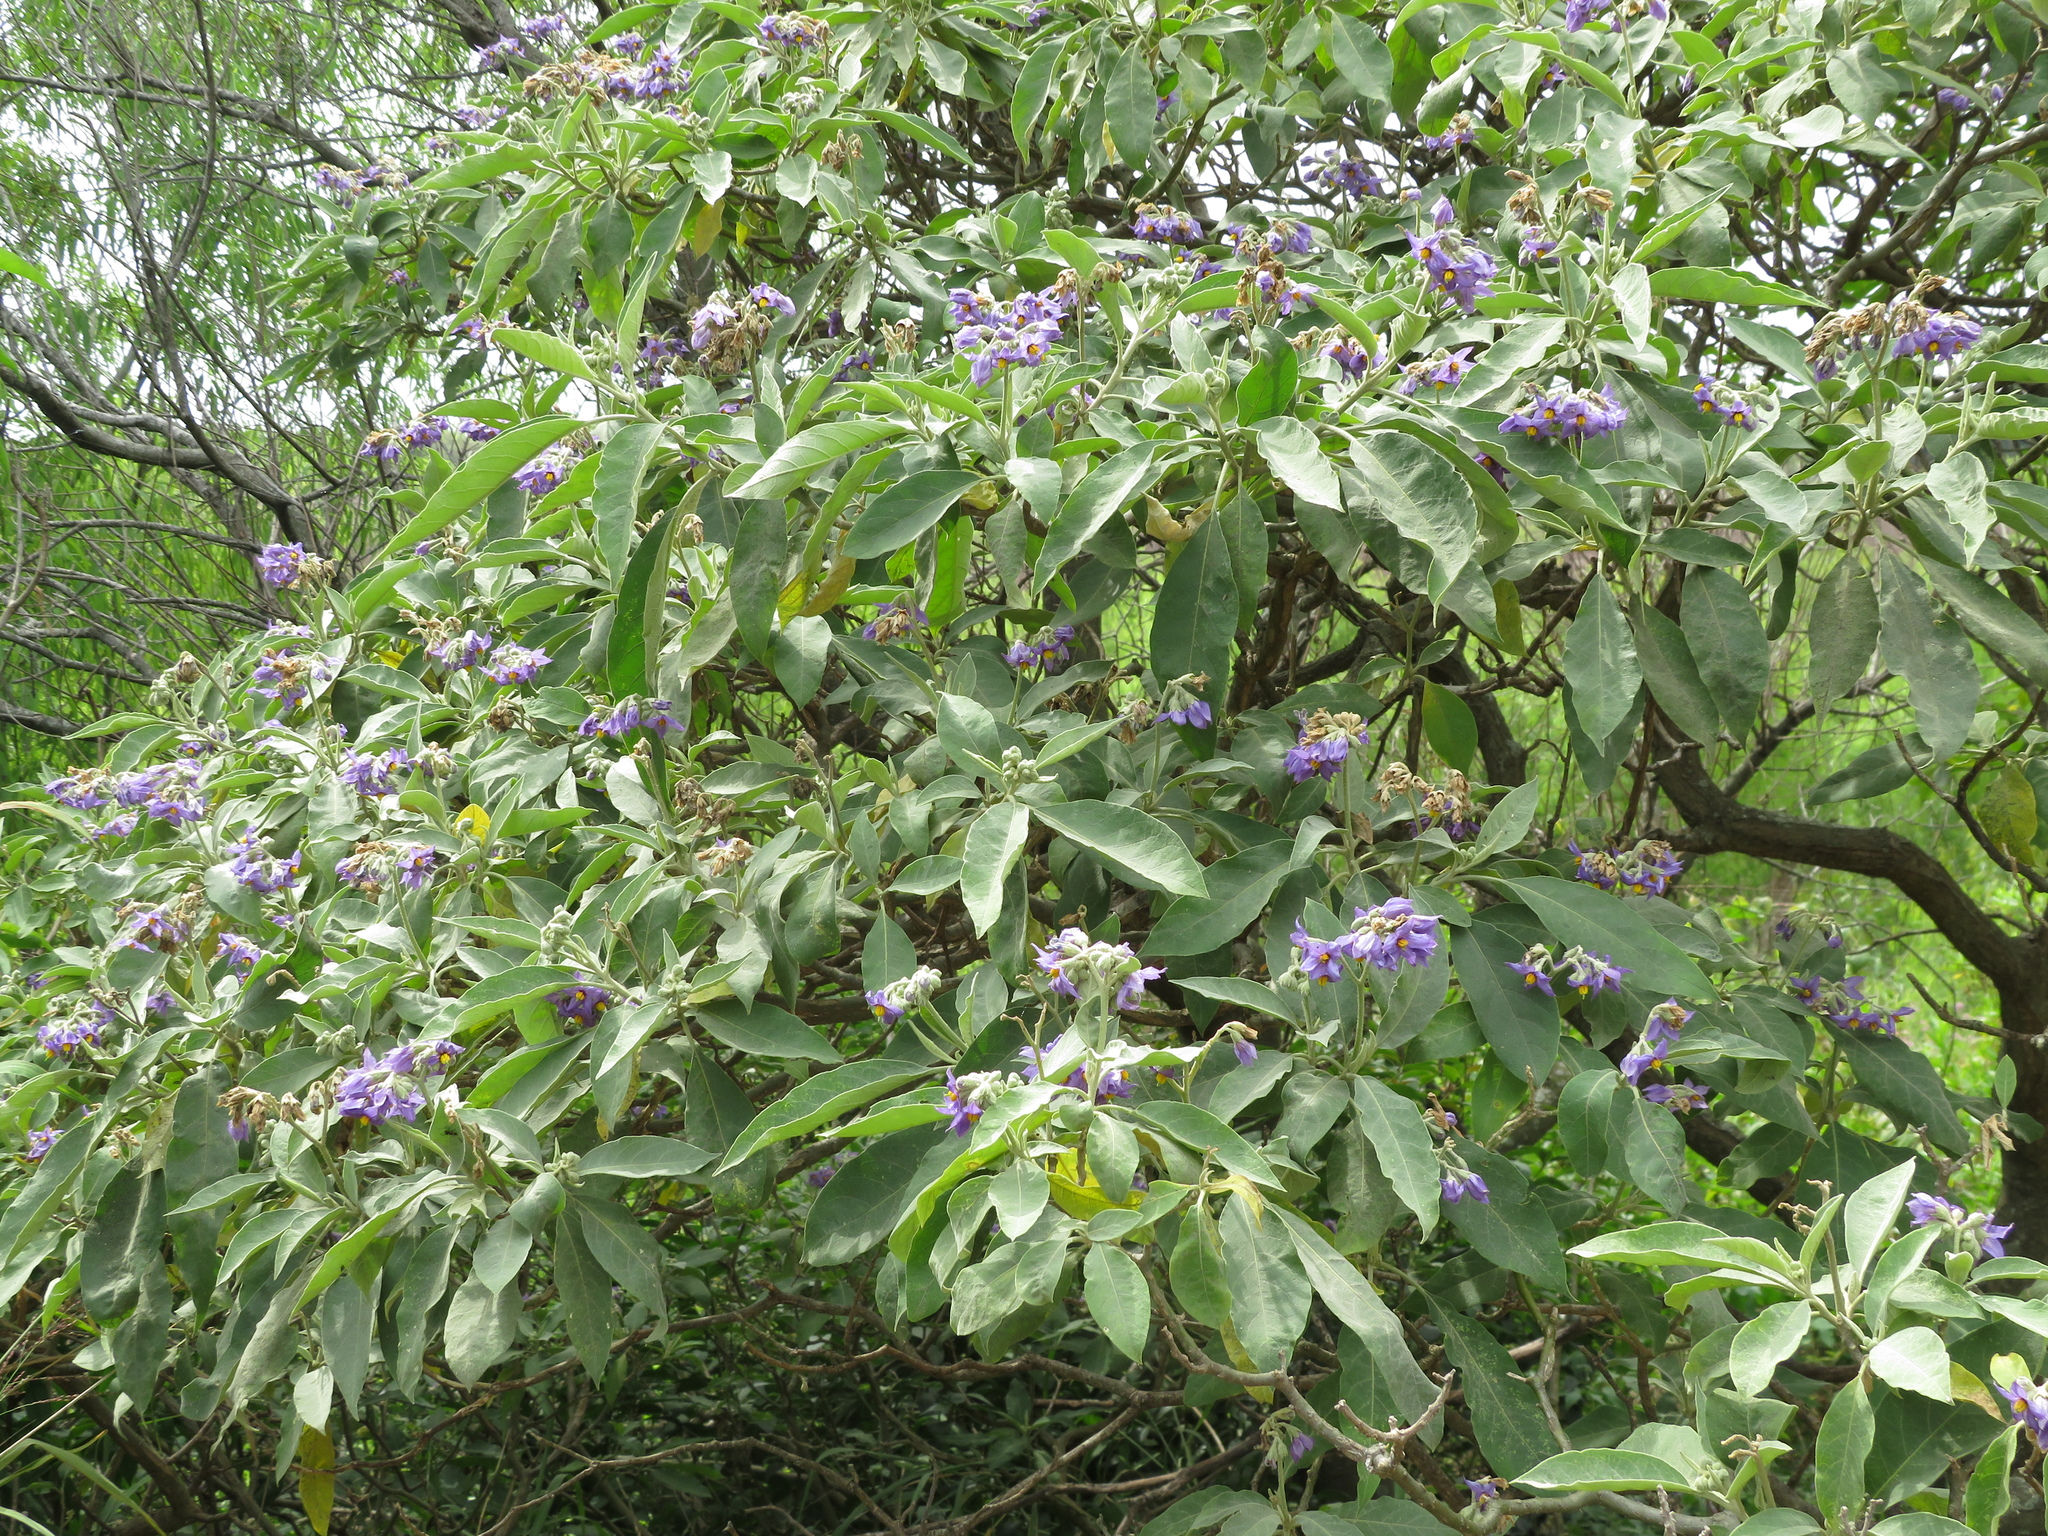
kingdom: Plantae
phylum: Tracheophyta
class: Magnoliopsida
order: Solanales
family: Solanaceae
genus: Solanum
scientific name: Solanum granulosoleprosum
